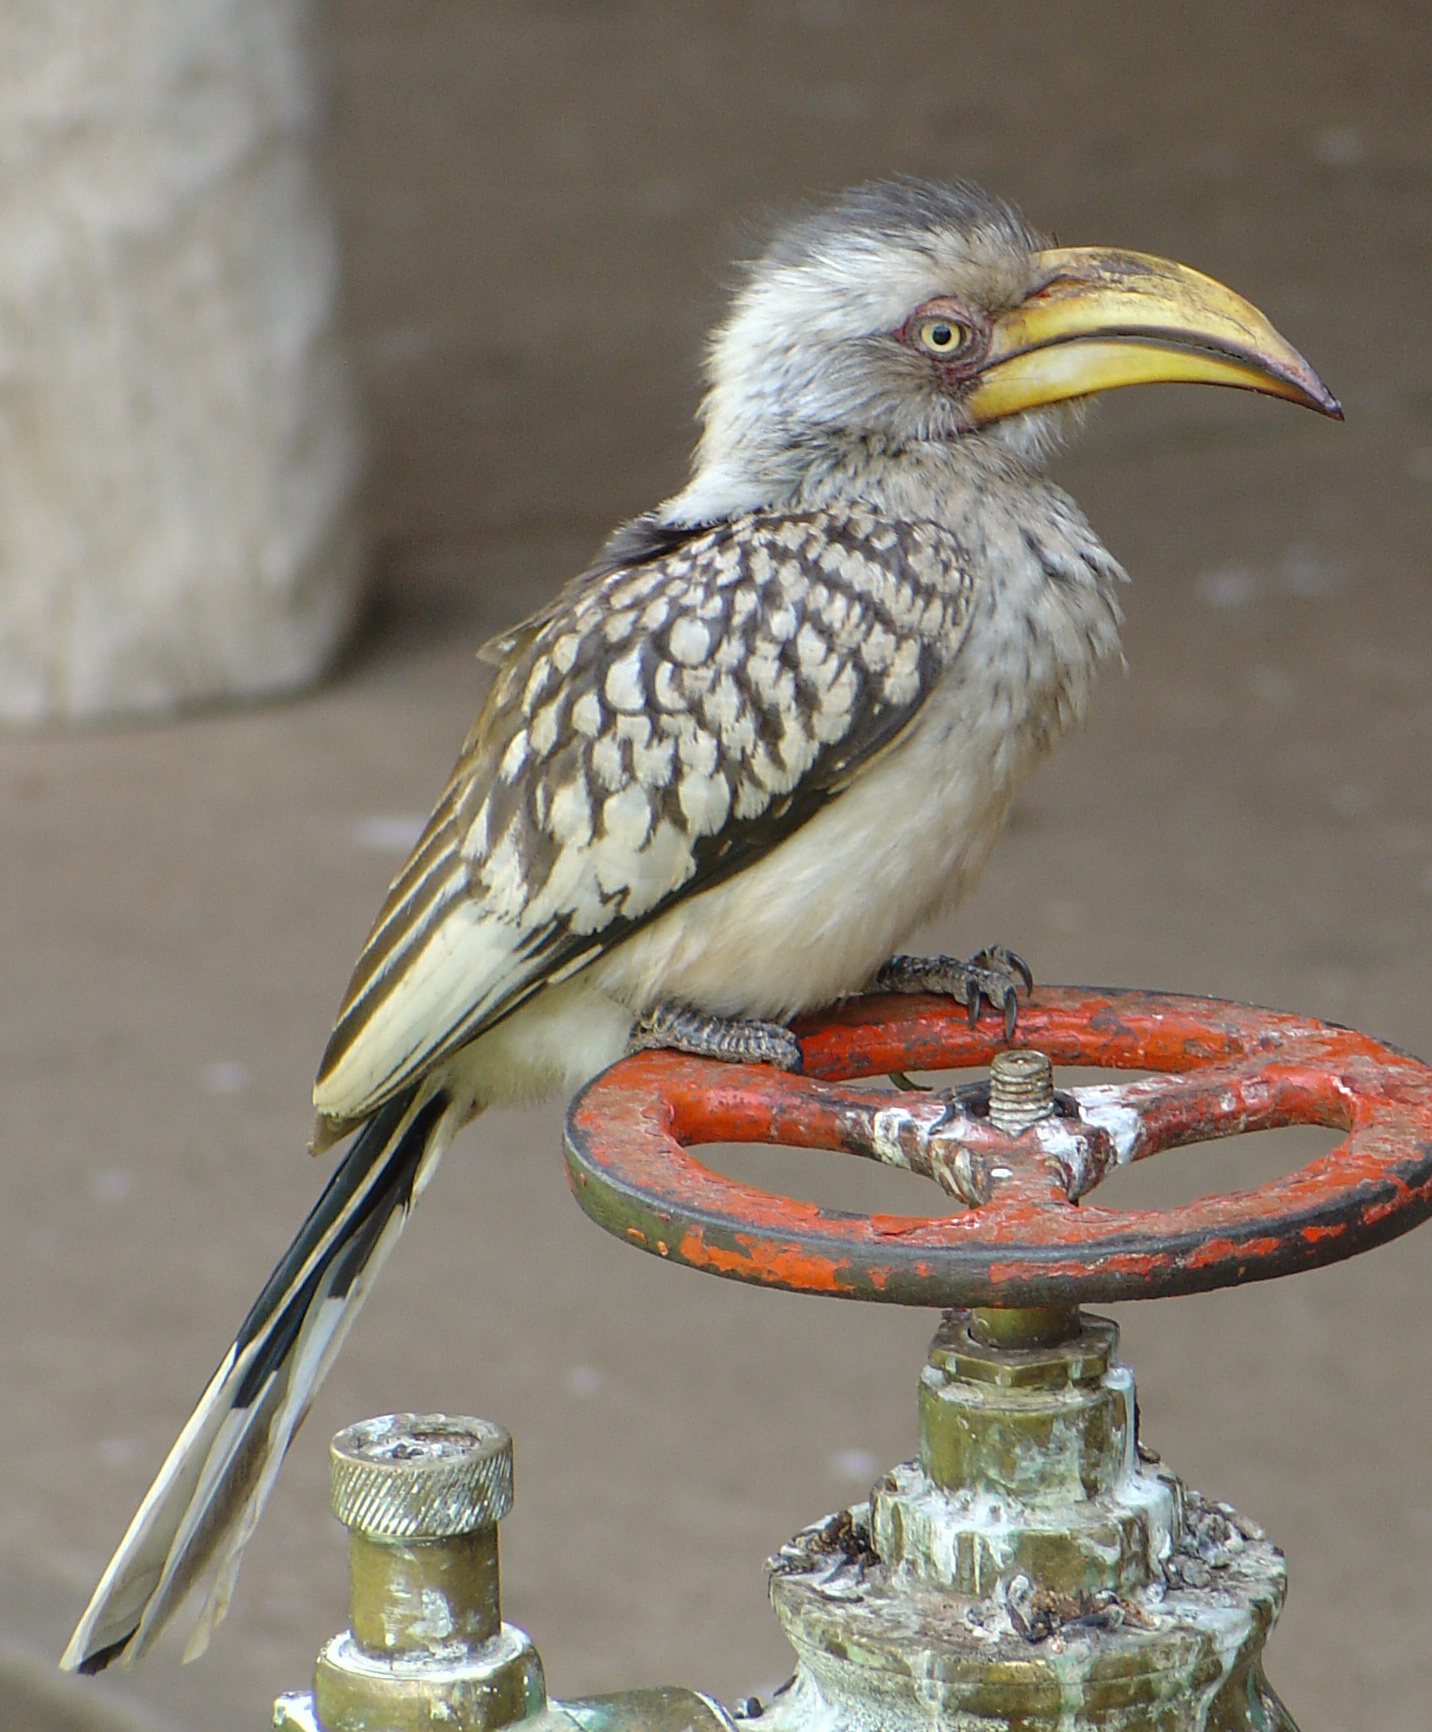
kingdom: Animalia
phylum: Chordata
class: Aves
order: Bucerotiformes
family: Bucerotidae
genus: Tockus
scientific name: Tockus leucomelas
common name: Southern yellow-billed hornbill
